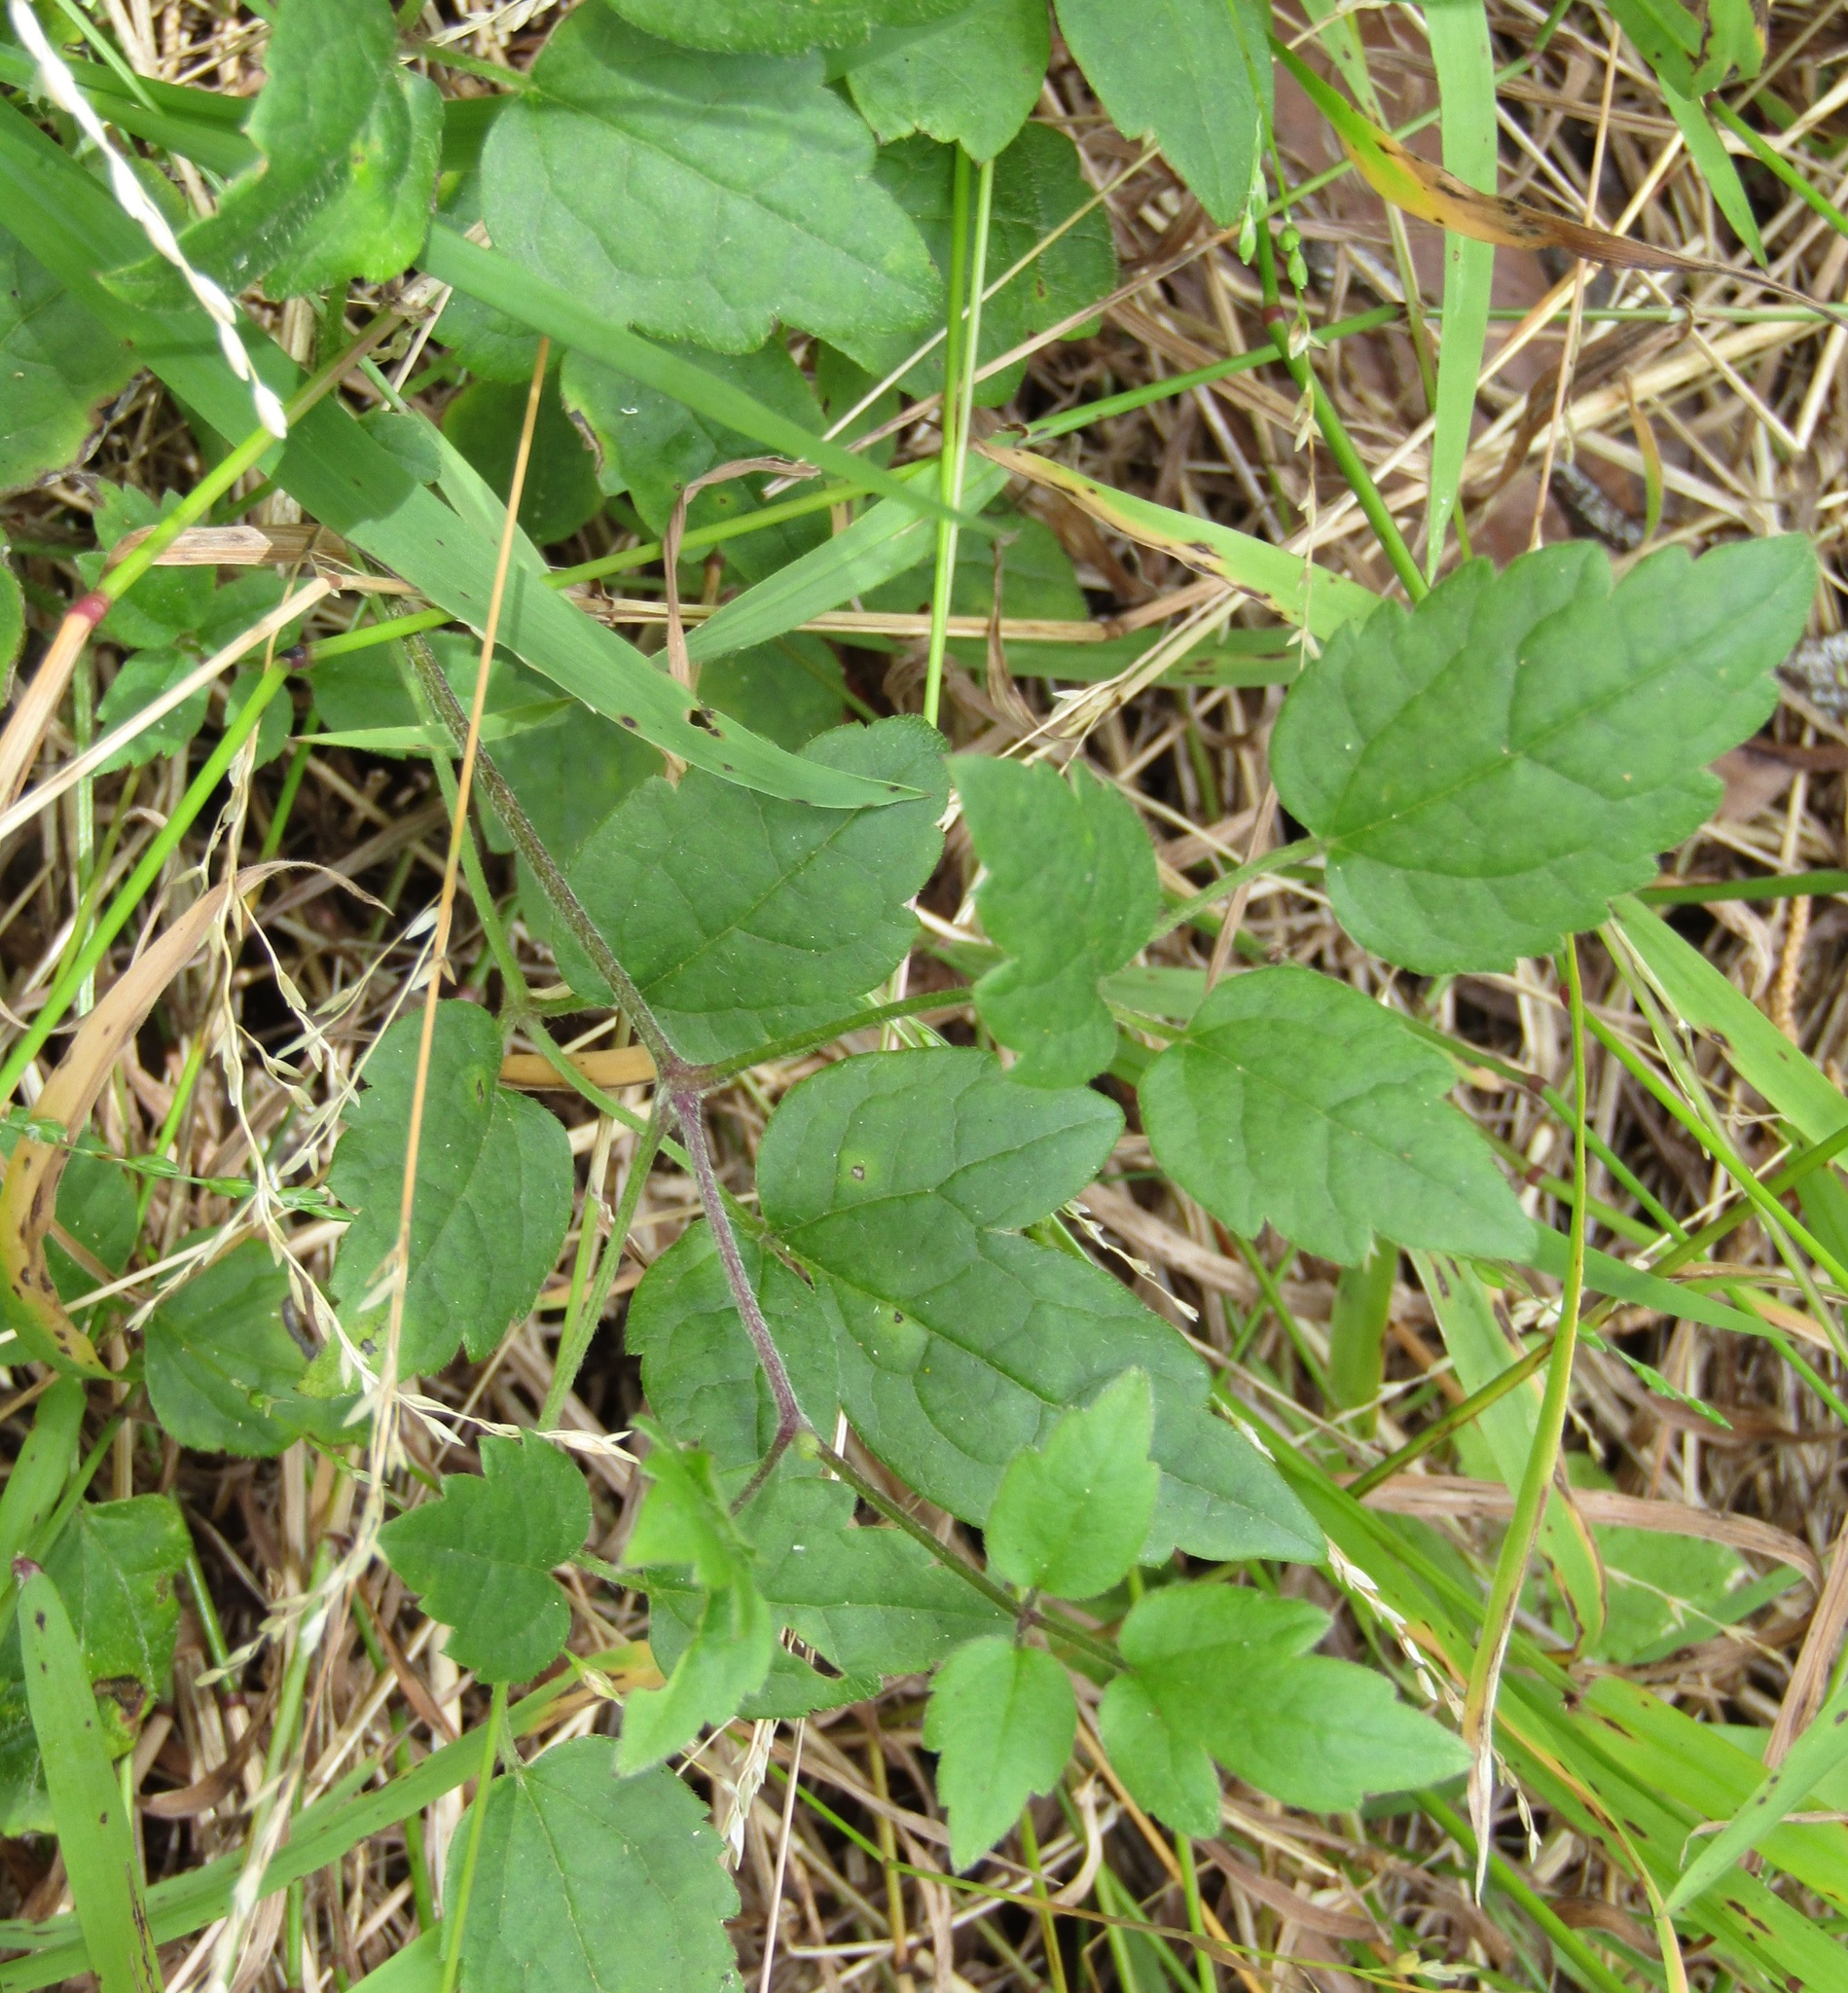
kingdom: Plantae
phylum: Tracheophyta
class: Magnoliopsida
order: Ranunculales
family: Ranunculaceae
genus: Clematis
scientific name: Clematis vitalba
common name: Evergreen clematis
